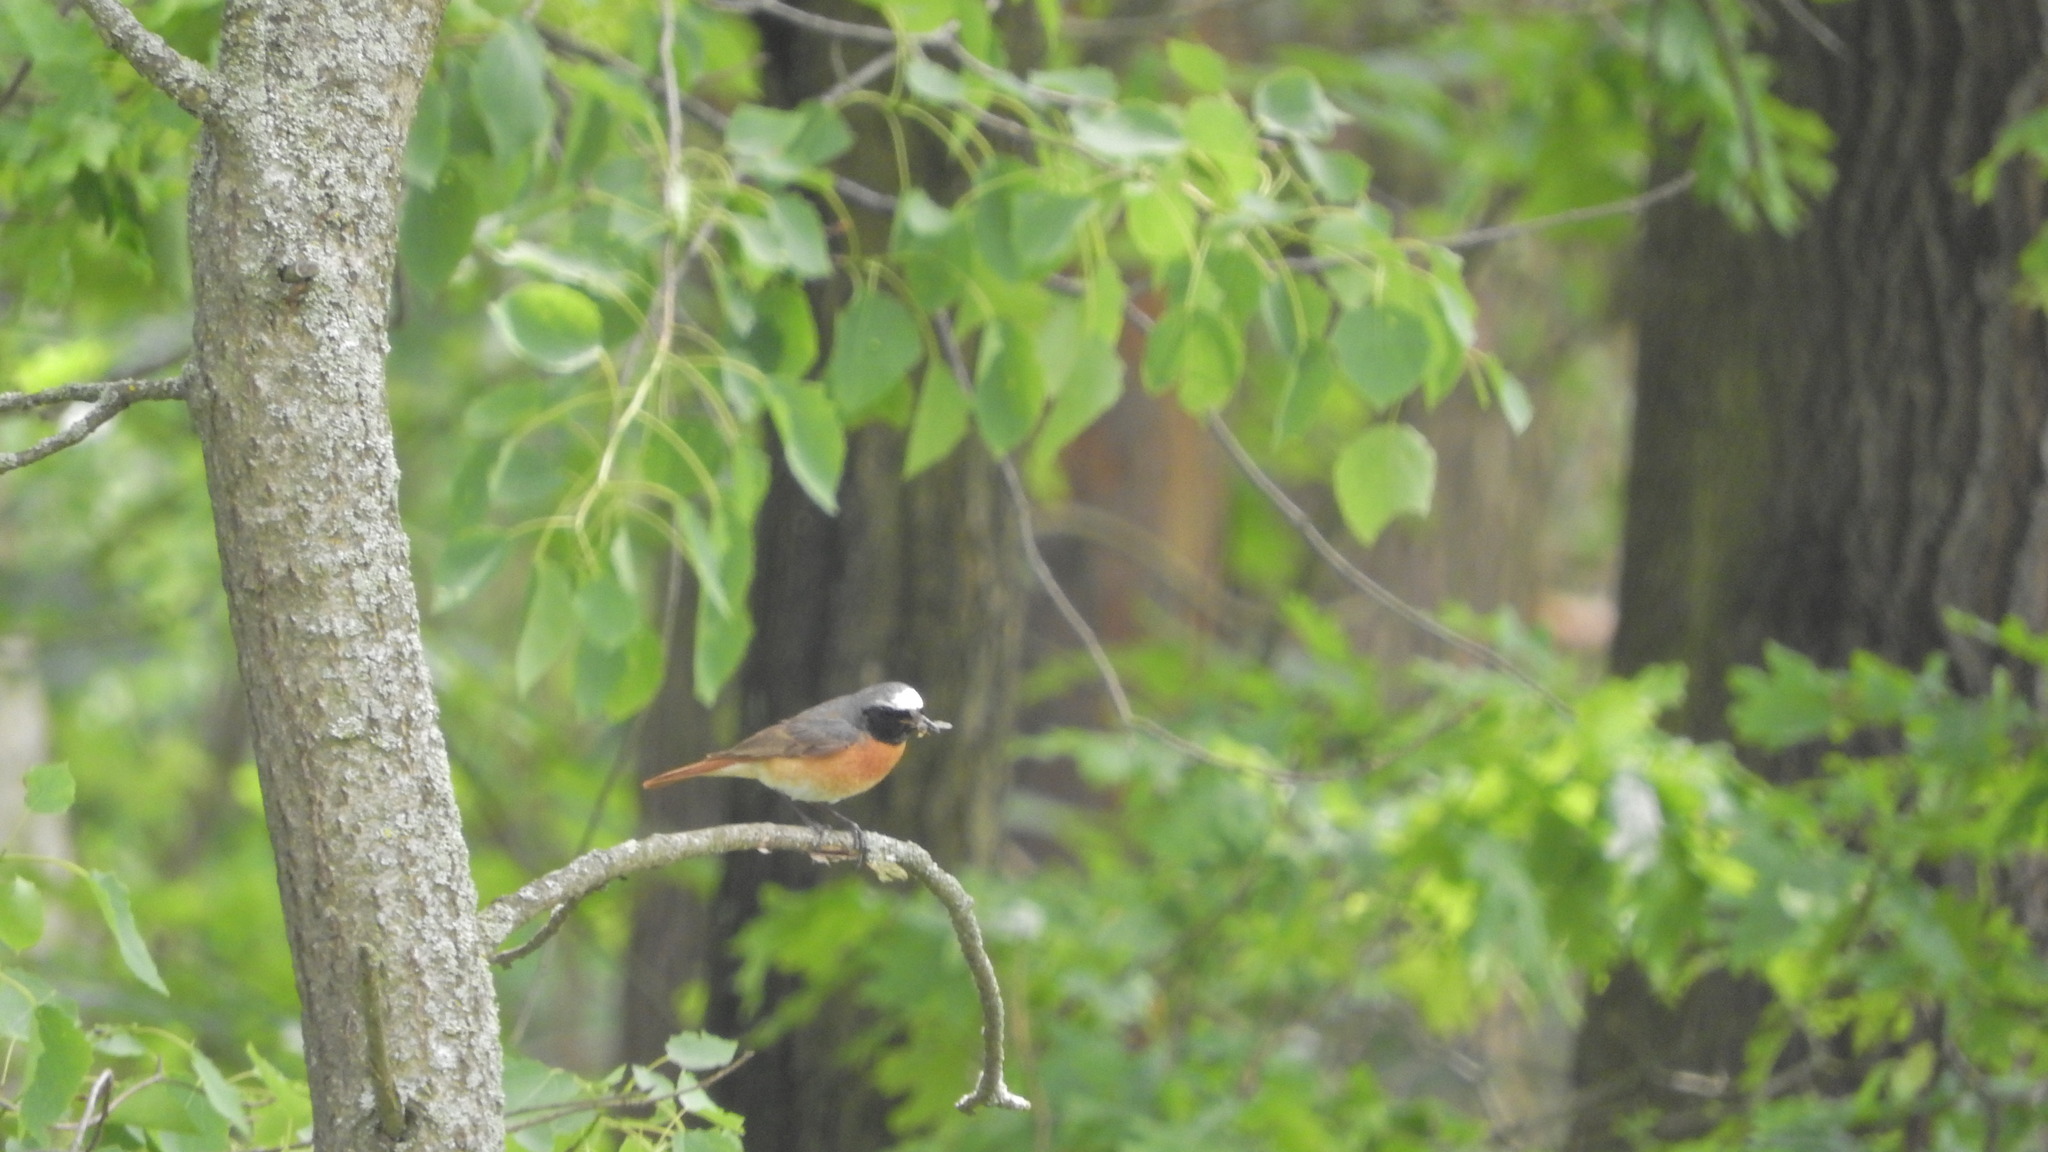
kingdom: Animalia
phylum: Chordata
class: Aves
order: Passeriformes
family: Muscicapidae
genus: Phoenicurus
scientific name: Phoenicurus phoenicurus
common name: Common redstart
